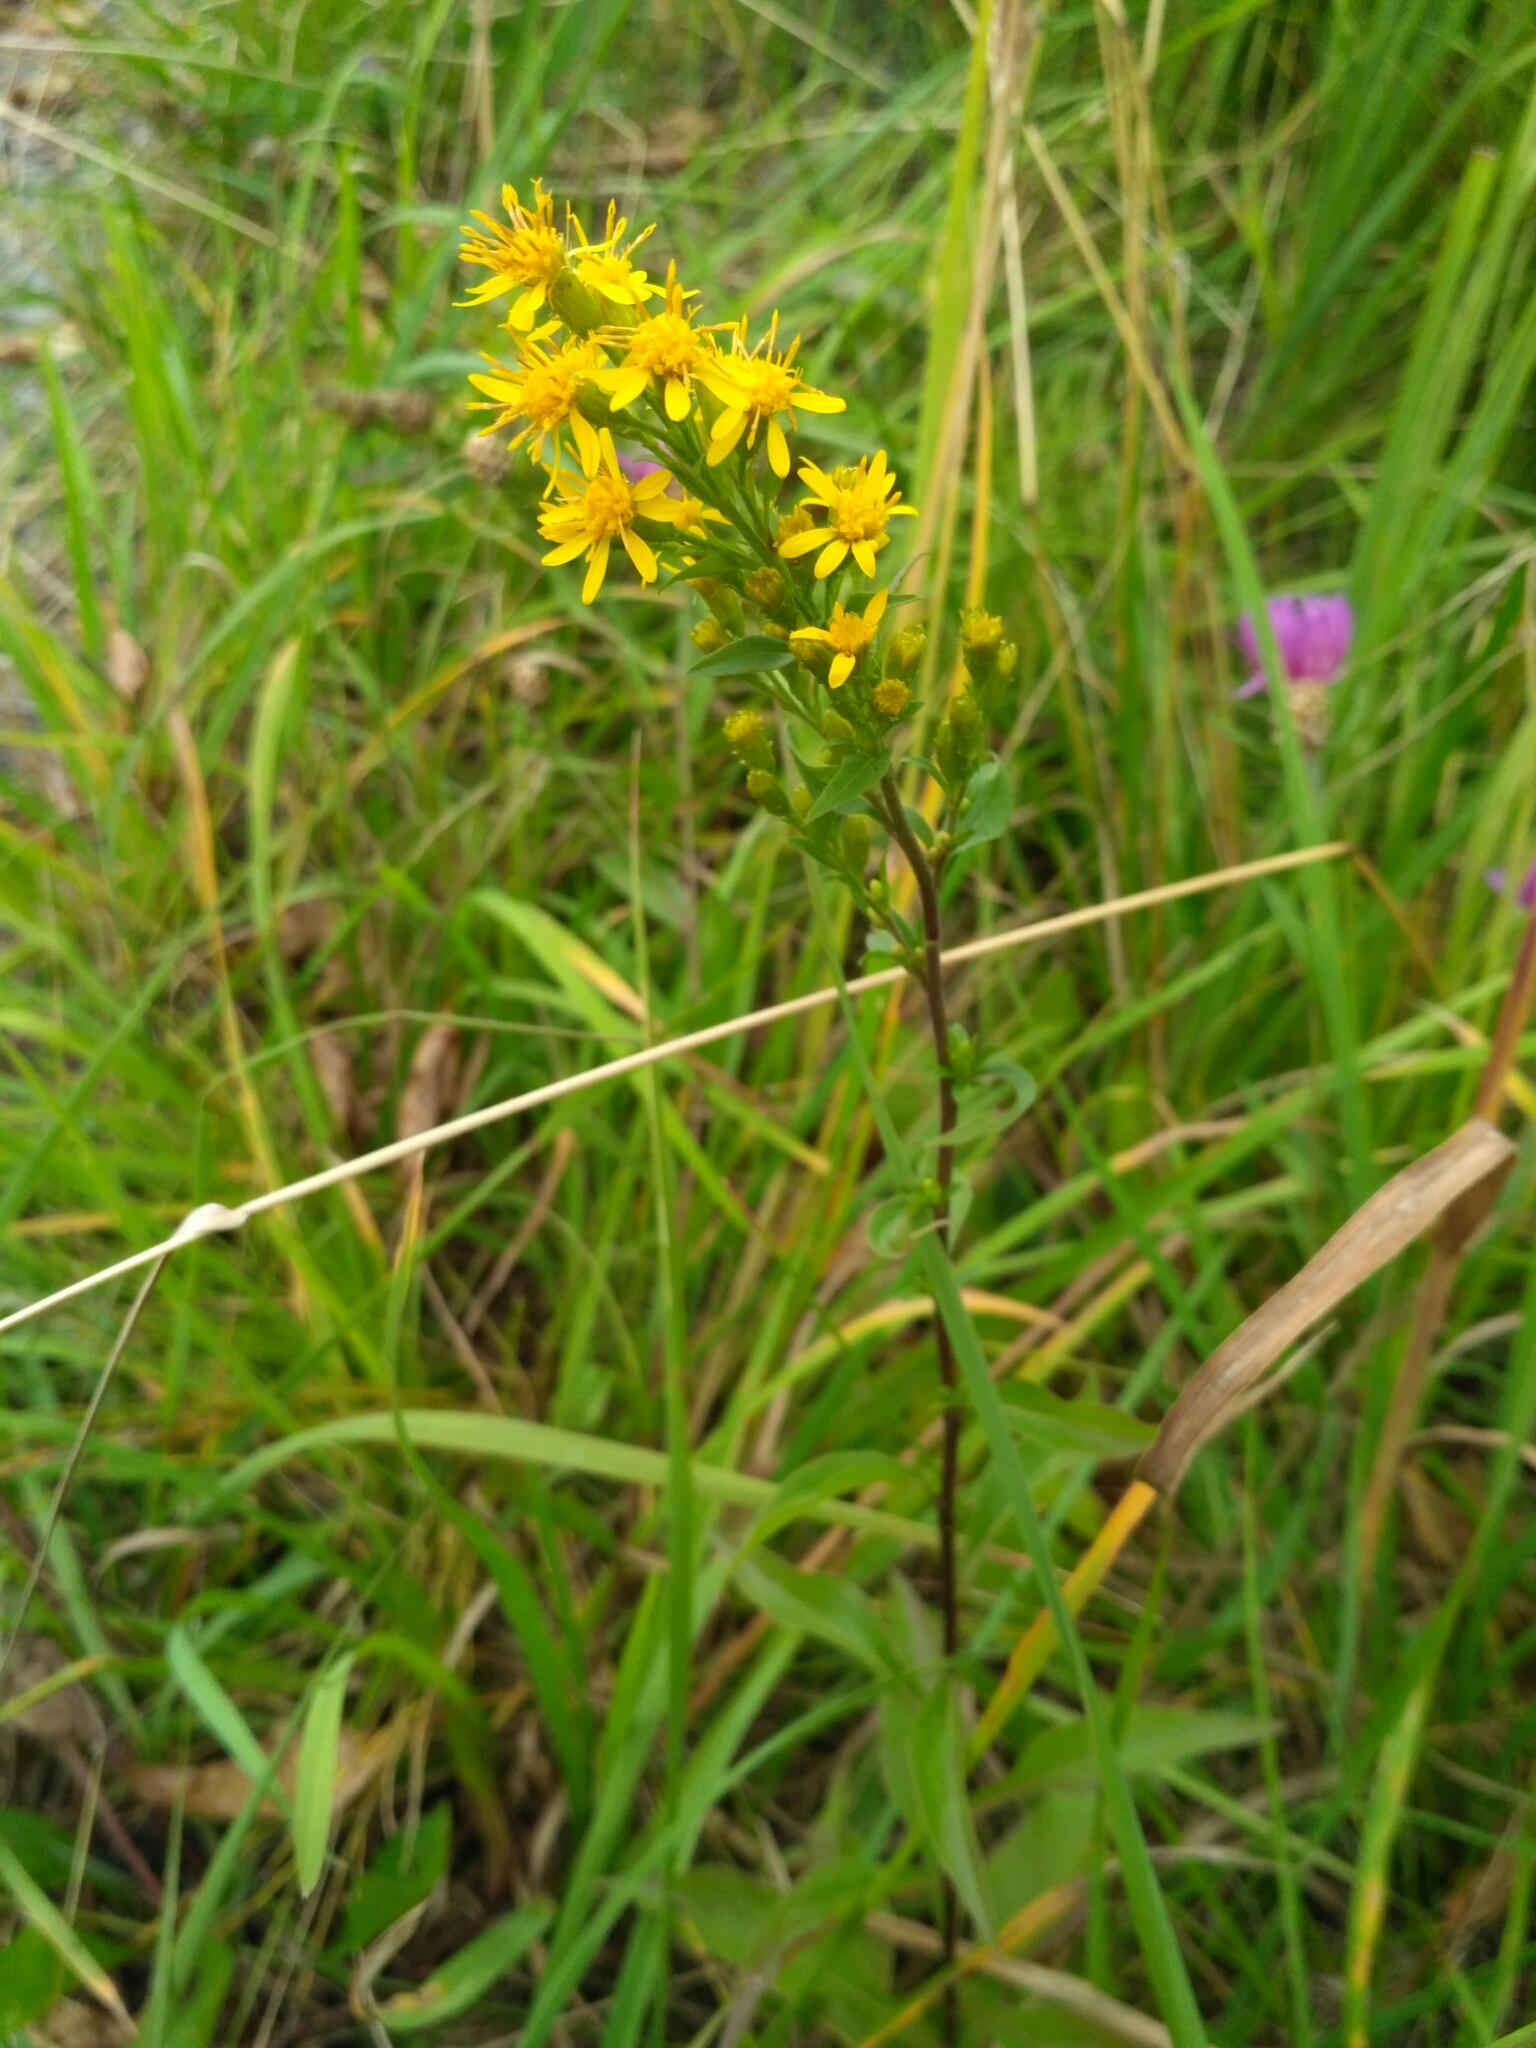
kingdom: Plantae
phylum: Tracheophyta
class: Magnoliopsida
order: Asterales
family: Asteraceae
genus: Solidago
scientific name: Solidago virgaurea
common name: Goldenrod
